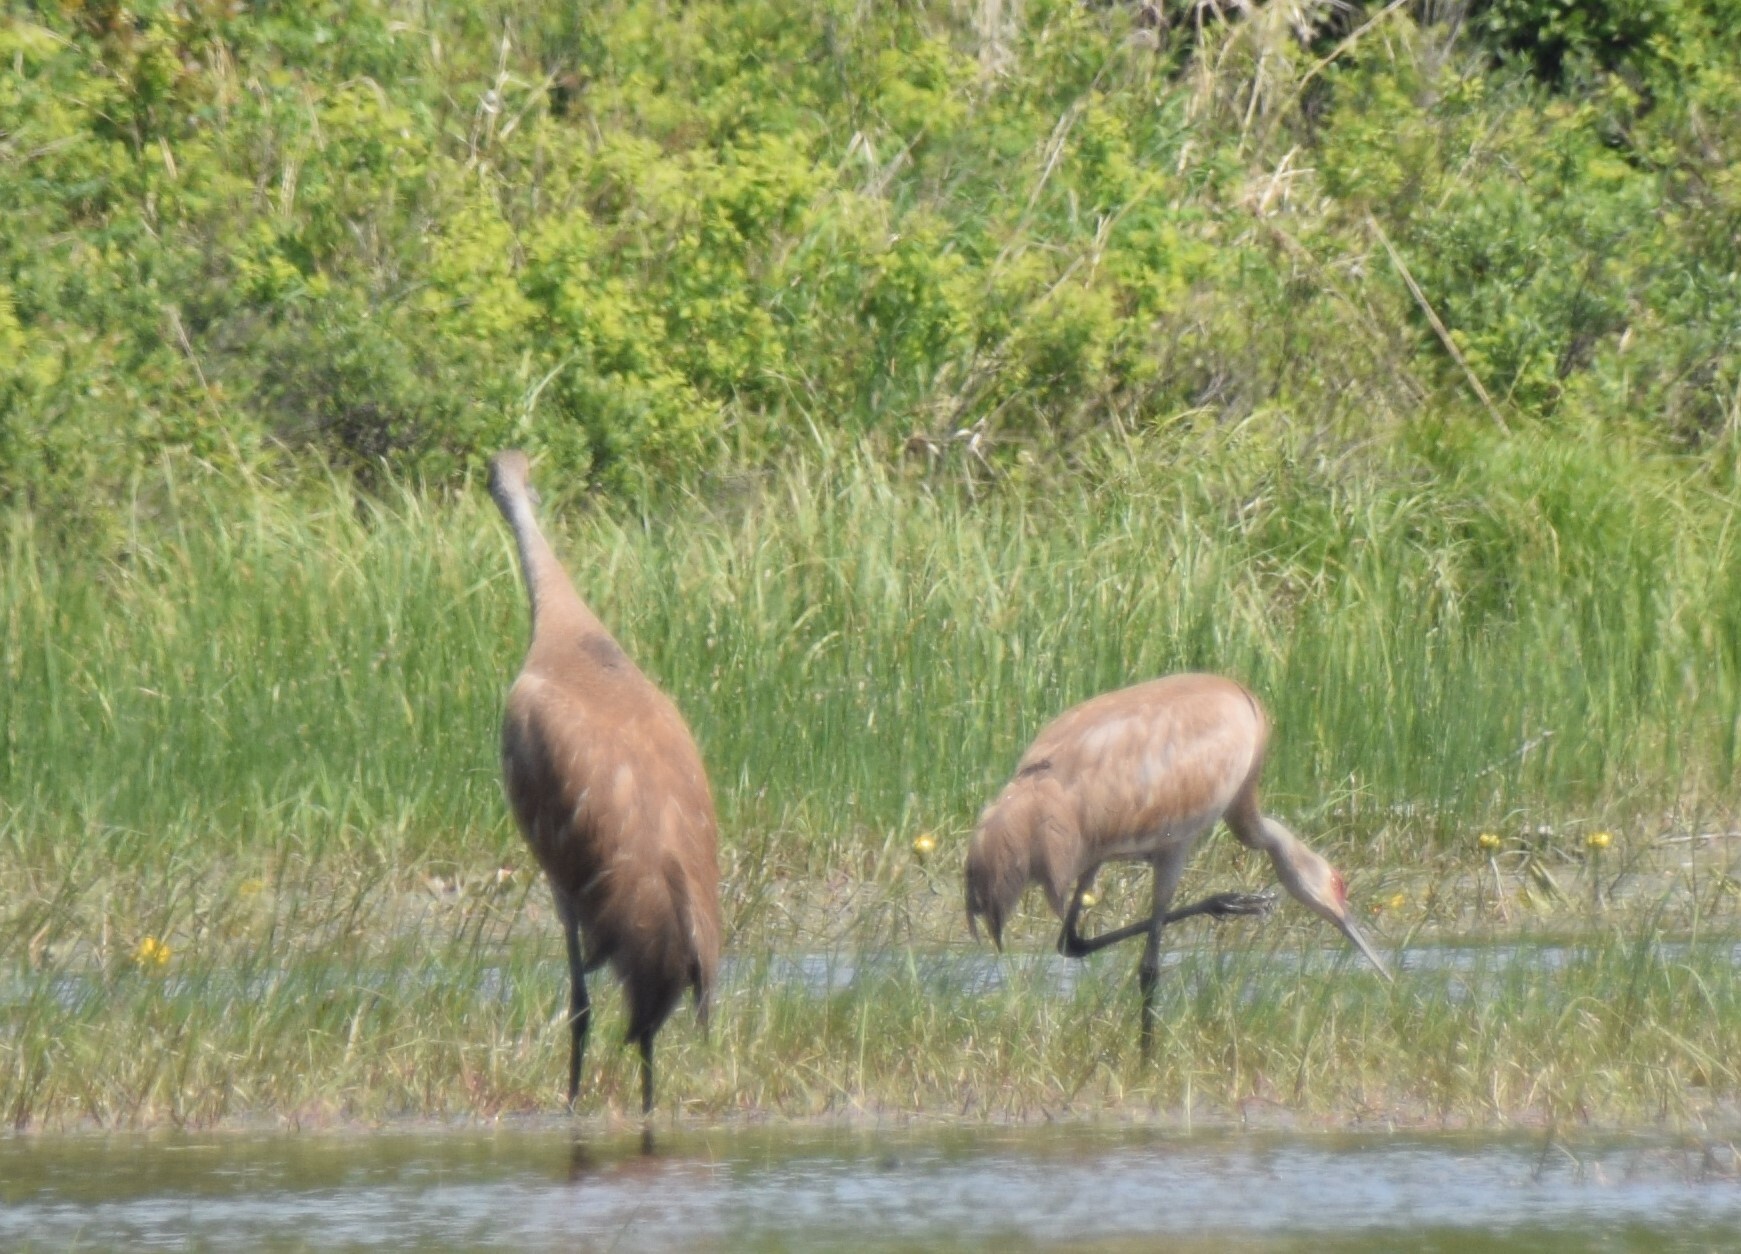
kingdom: Animalia
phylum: Chordata
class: Aves
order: Gruiformes
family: Gruidae
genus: Grus
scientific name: Grus canadensis
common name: Sandhill crane
